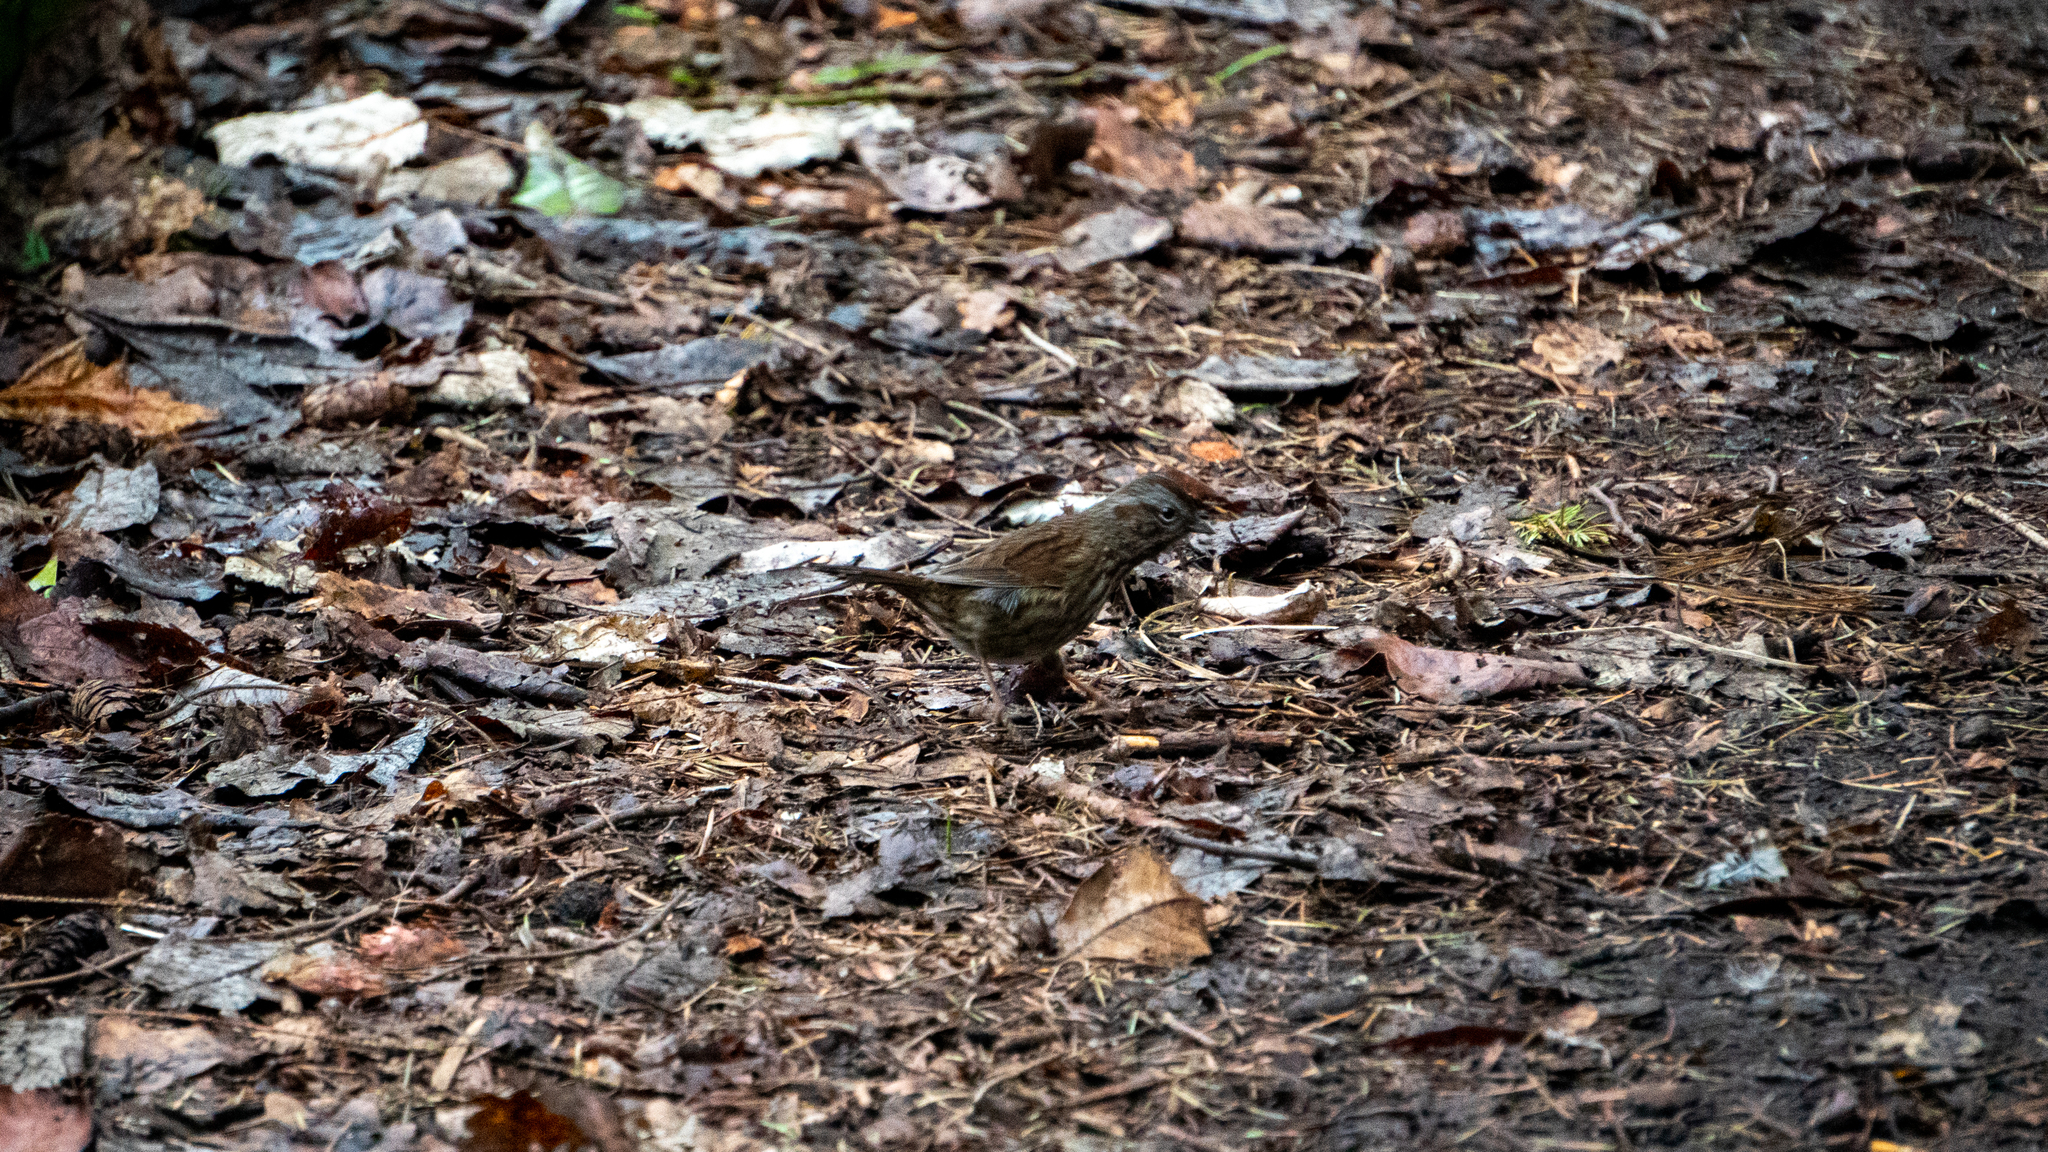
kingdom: Animalia
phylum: Chordata
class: Aves
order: Passeriformes
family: Passerellidae
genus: Melospiza
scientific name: Melospiza melodia
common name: Song sparrow
